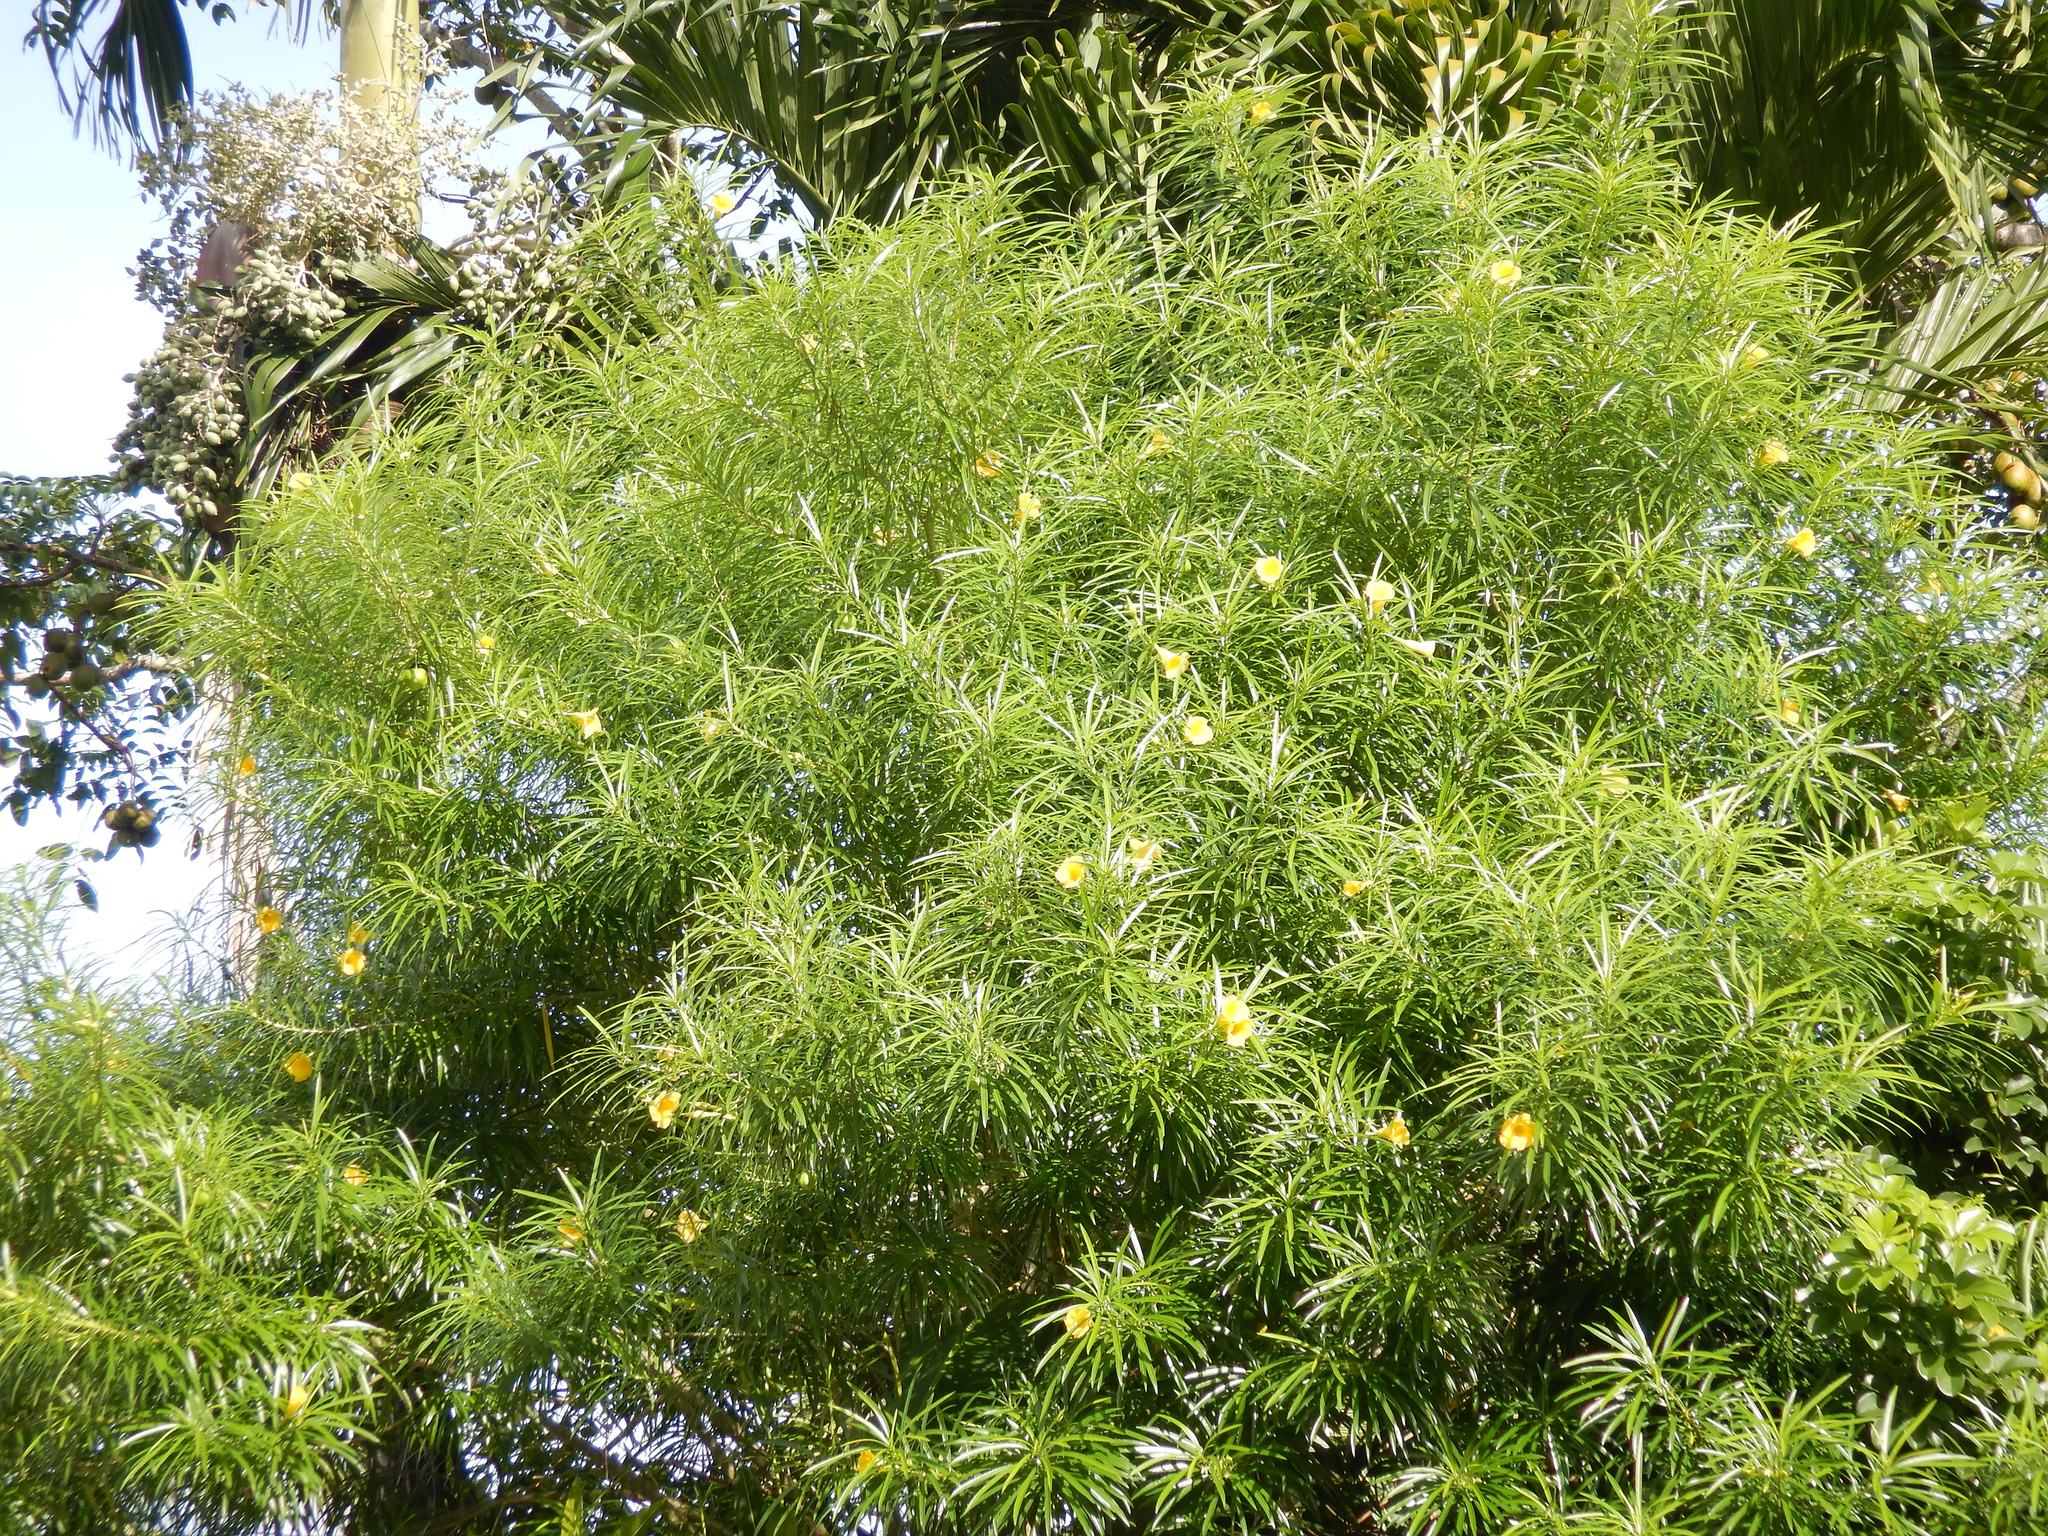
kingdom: Plantae
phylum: Tracheophyta
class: Magnoliopsida
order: Gentianales
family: Apocynaceae
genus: Cascabela
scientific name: Cascabela thevetia
